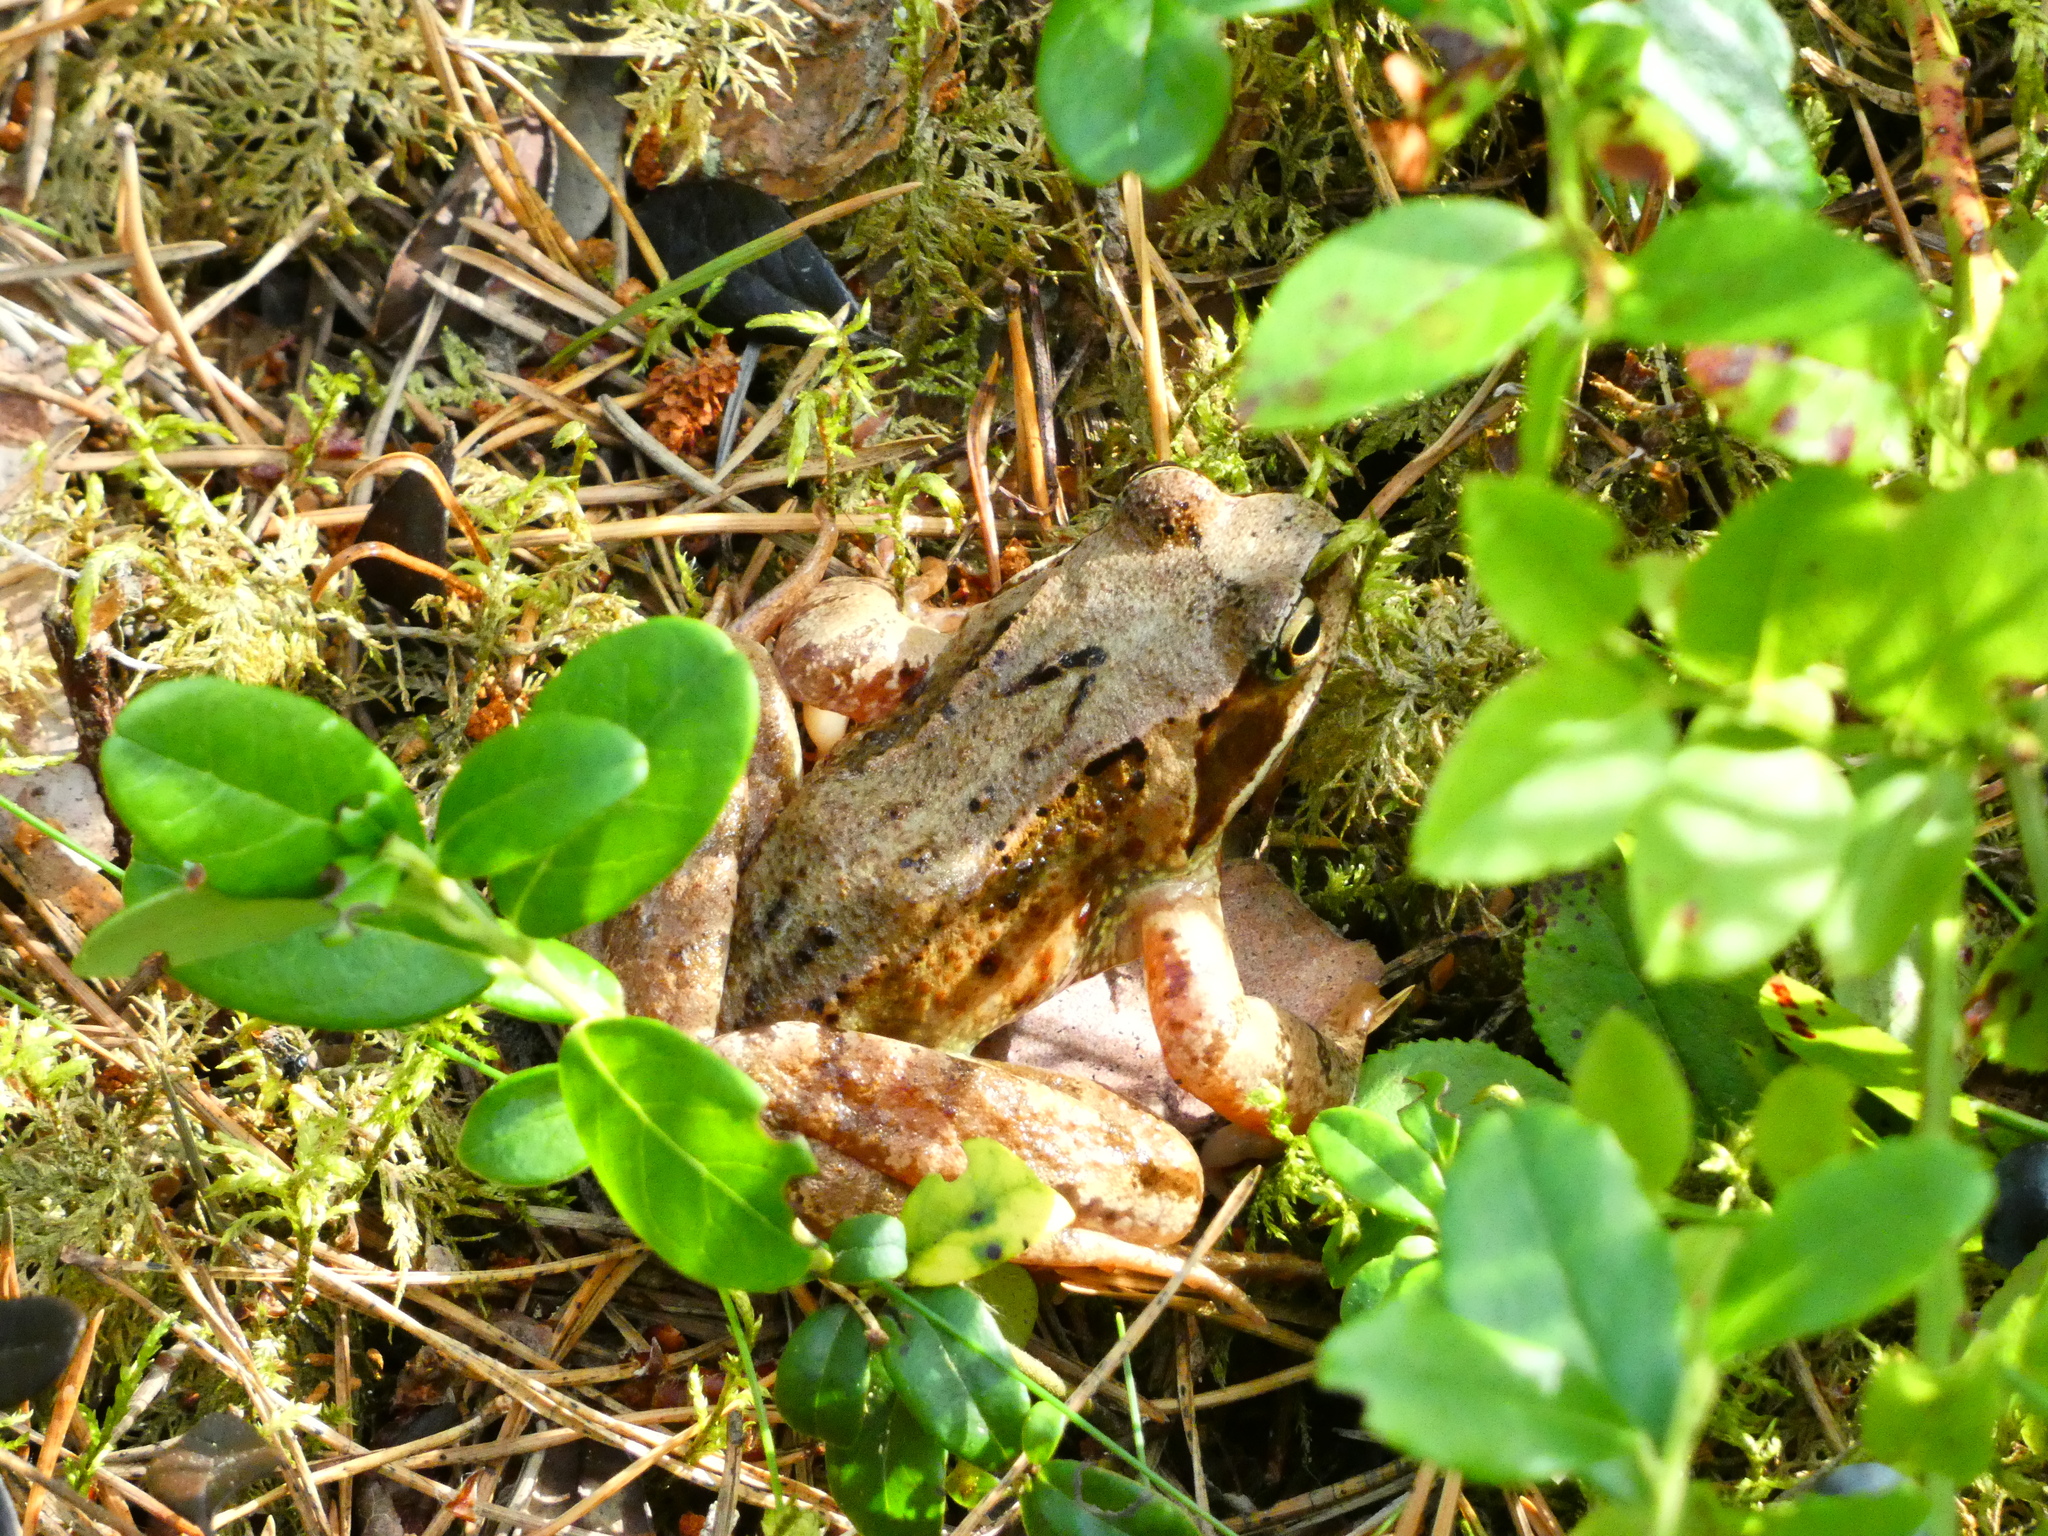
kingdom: Animalia
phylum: Chordata
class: Amphibia
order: Anura
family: Ranidae
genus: Rana
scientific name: Rana temporaria
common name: Common frog
